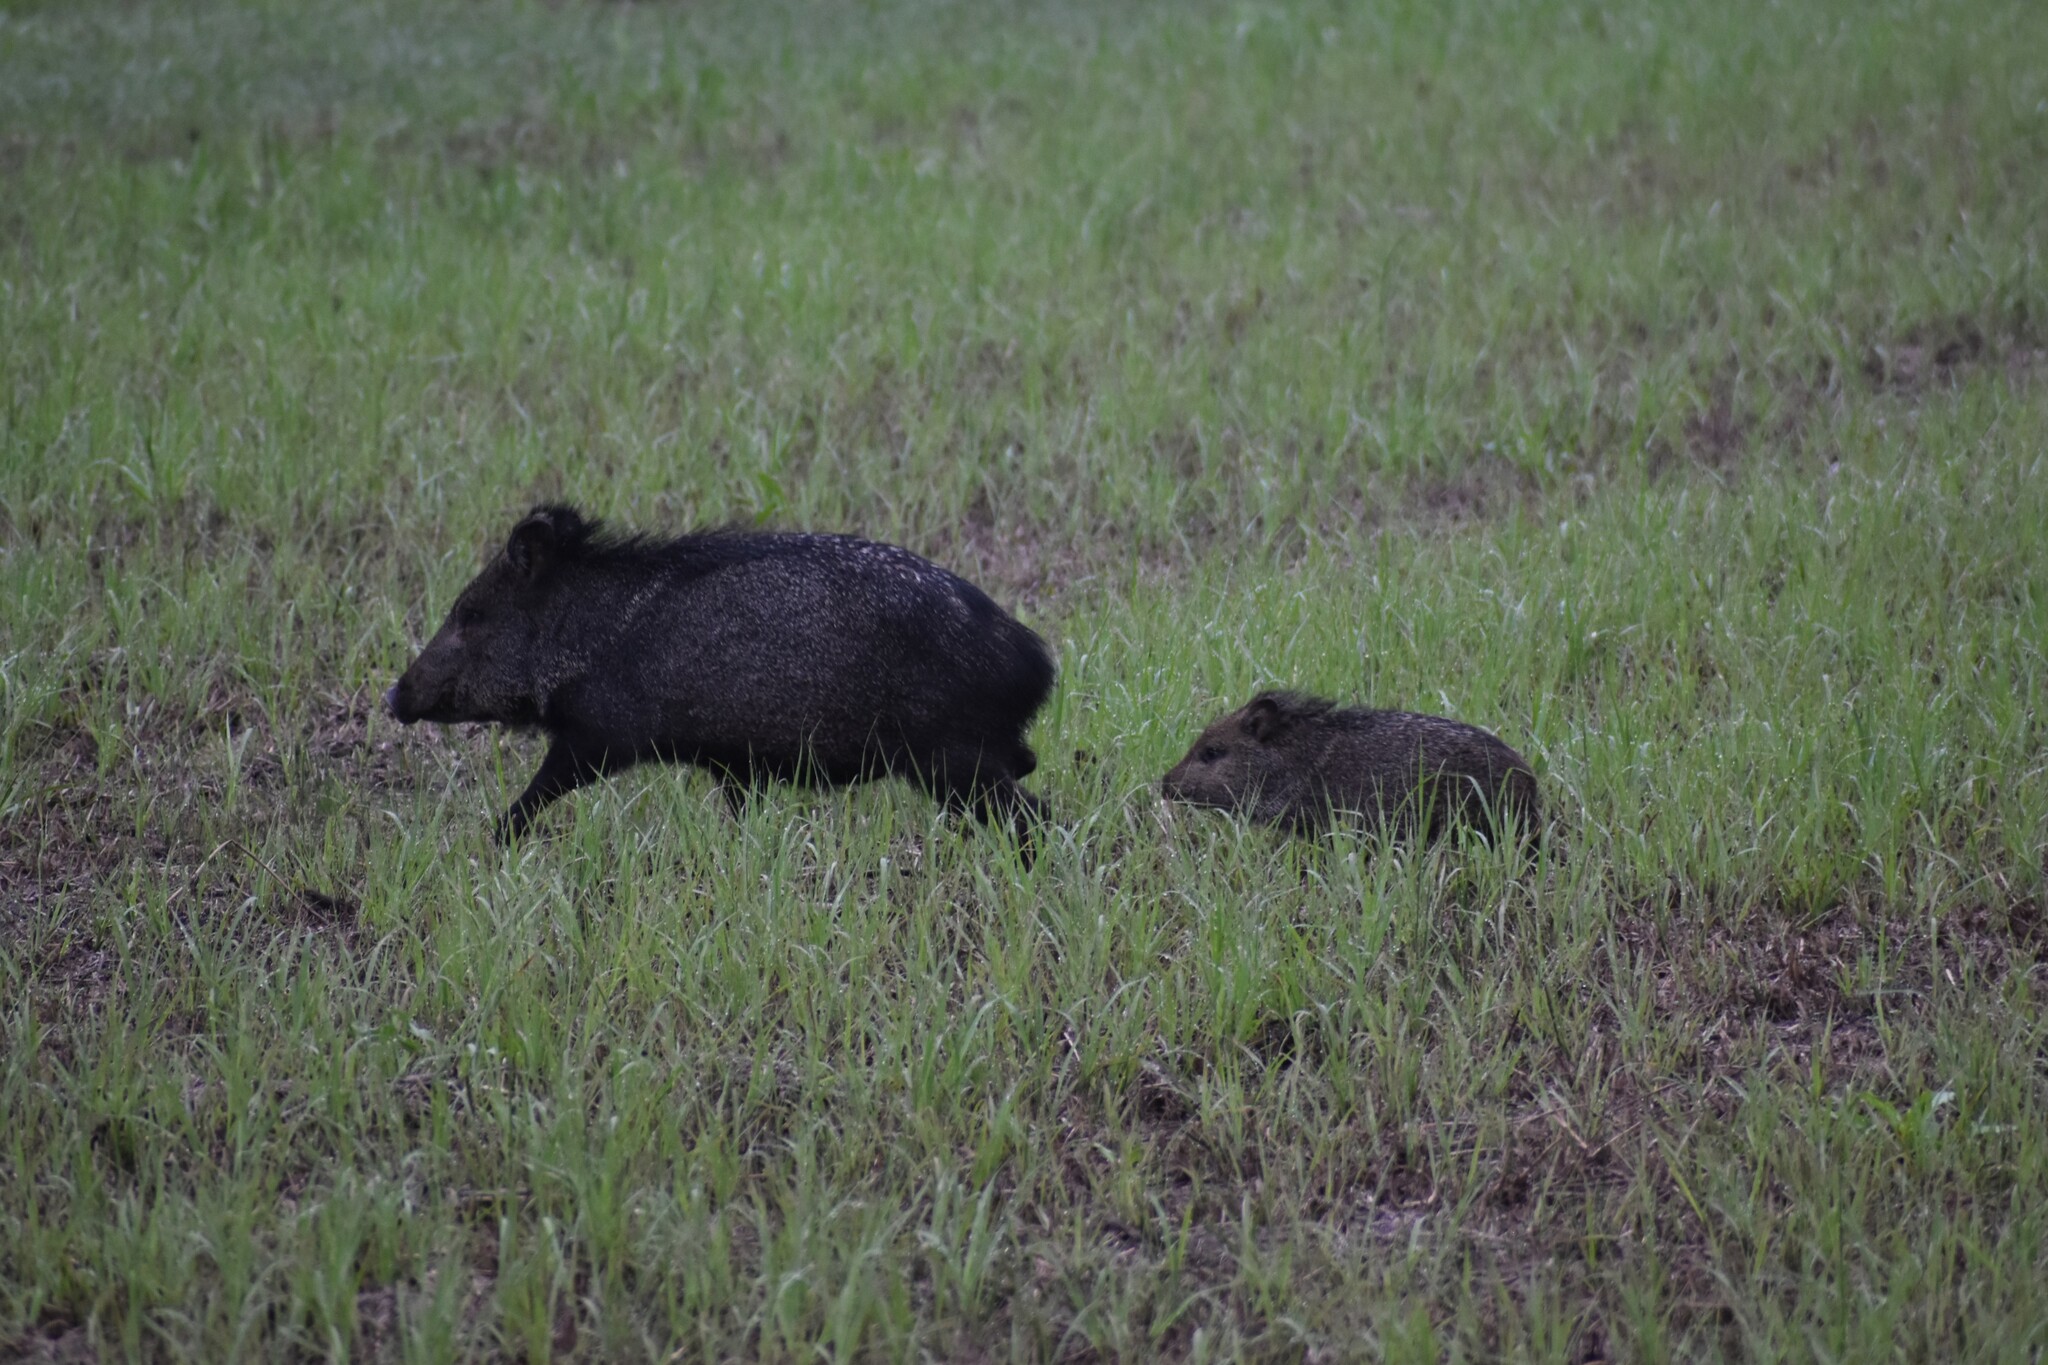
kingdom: Animalia
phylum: Chordata
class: Mammalia
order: Artiodactyla
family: Tayassuidae
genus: Pecari
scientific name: Pecari tajacu
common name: Collared peccary
